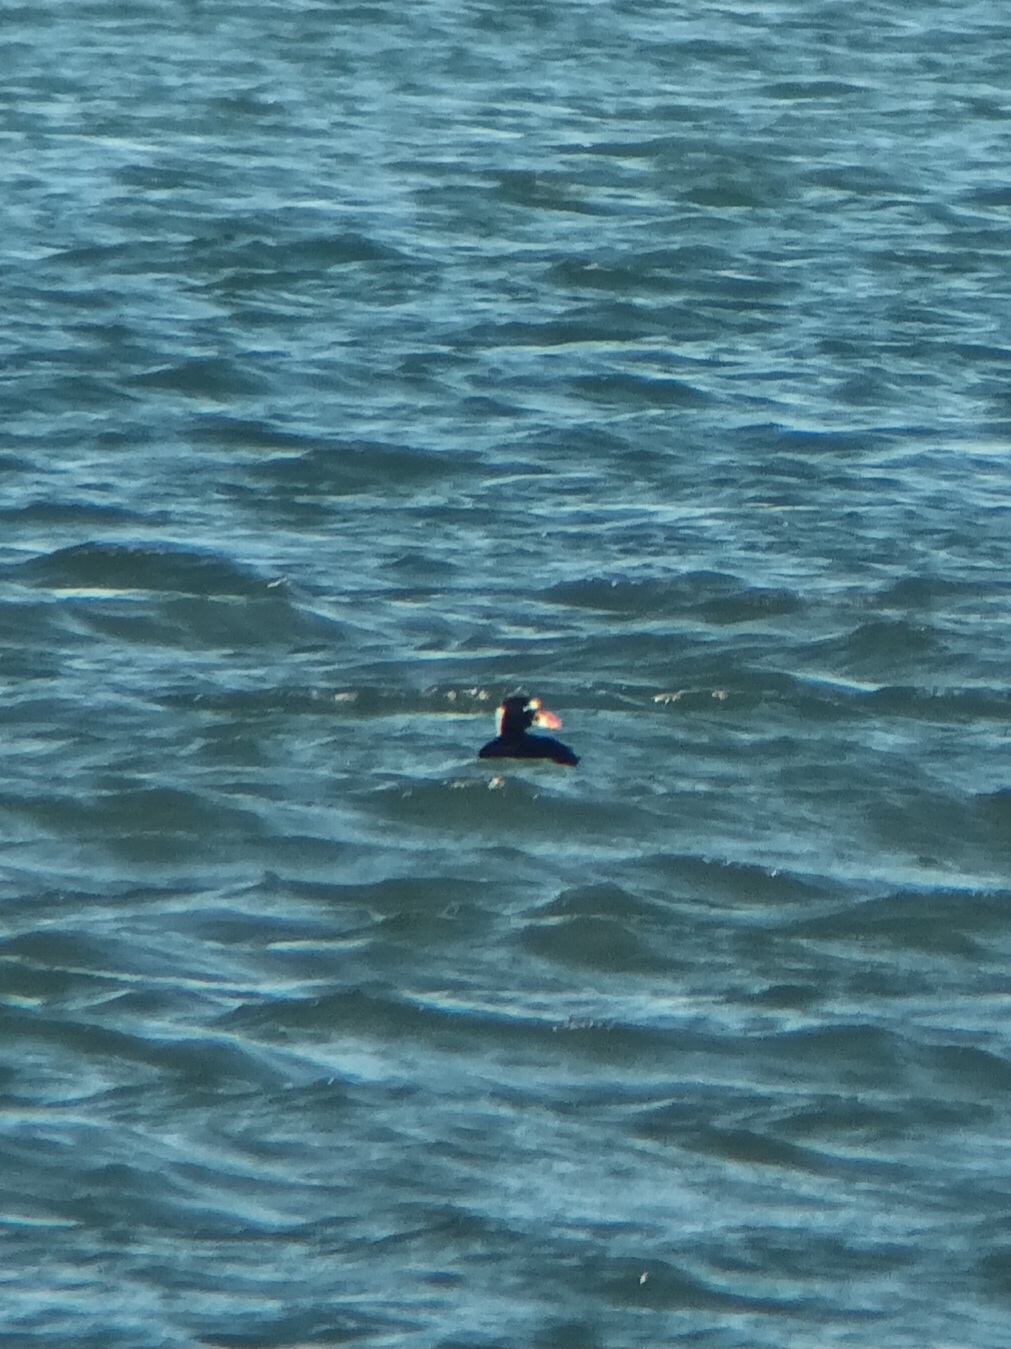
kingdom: Animalia
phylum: Chordata
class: Aves
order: Anseriformes
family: Anatidae
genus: Melanitta
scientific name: Melanitta perspicillata
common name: Surf scoter
